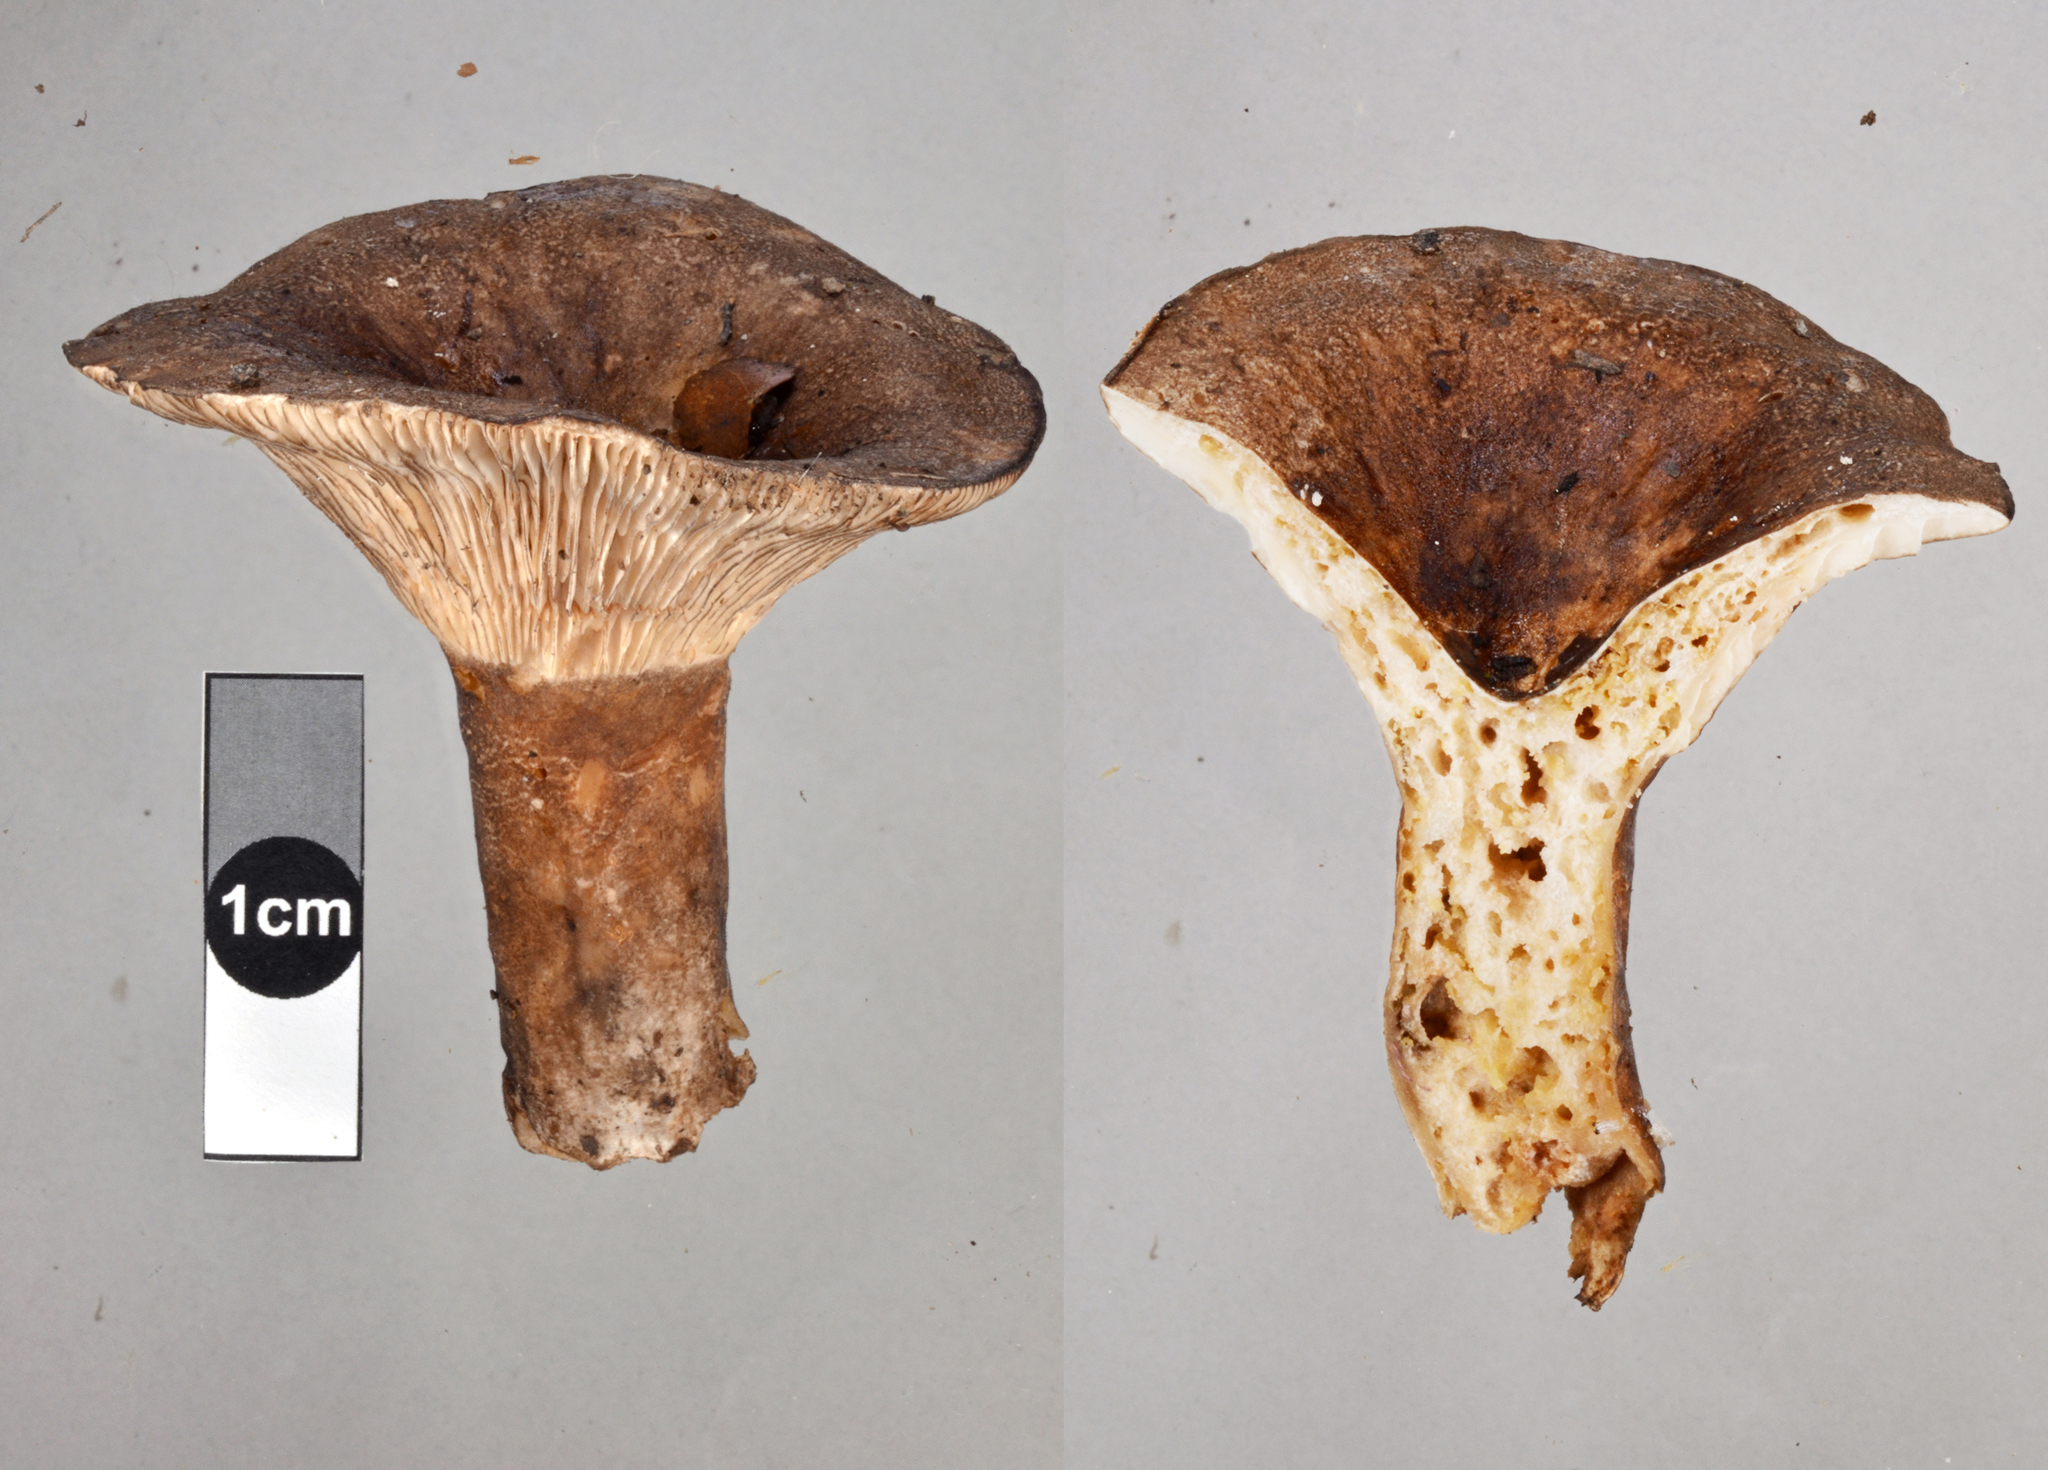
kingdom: Fungi
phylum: Basidiomycota
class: Agaricomycetes
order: Russulales
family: Russulaceae
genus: Russula
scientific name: Russula griseobrunnea
